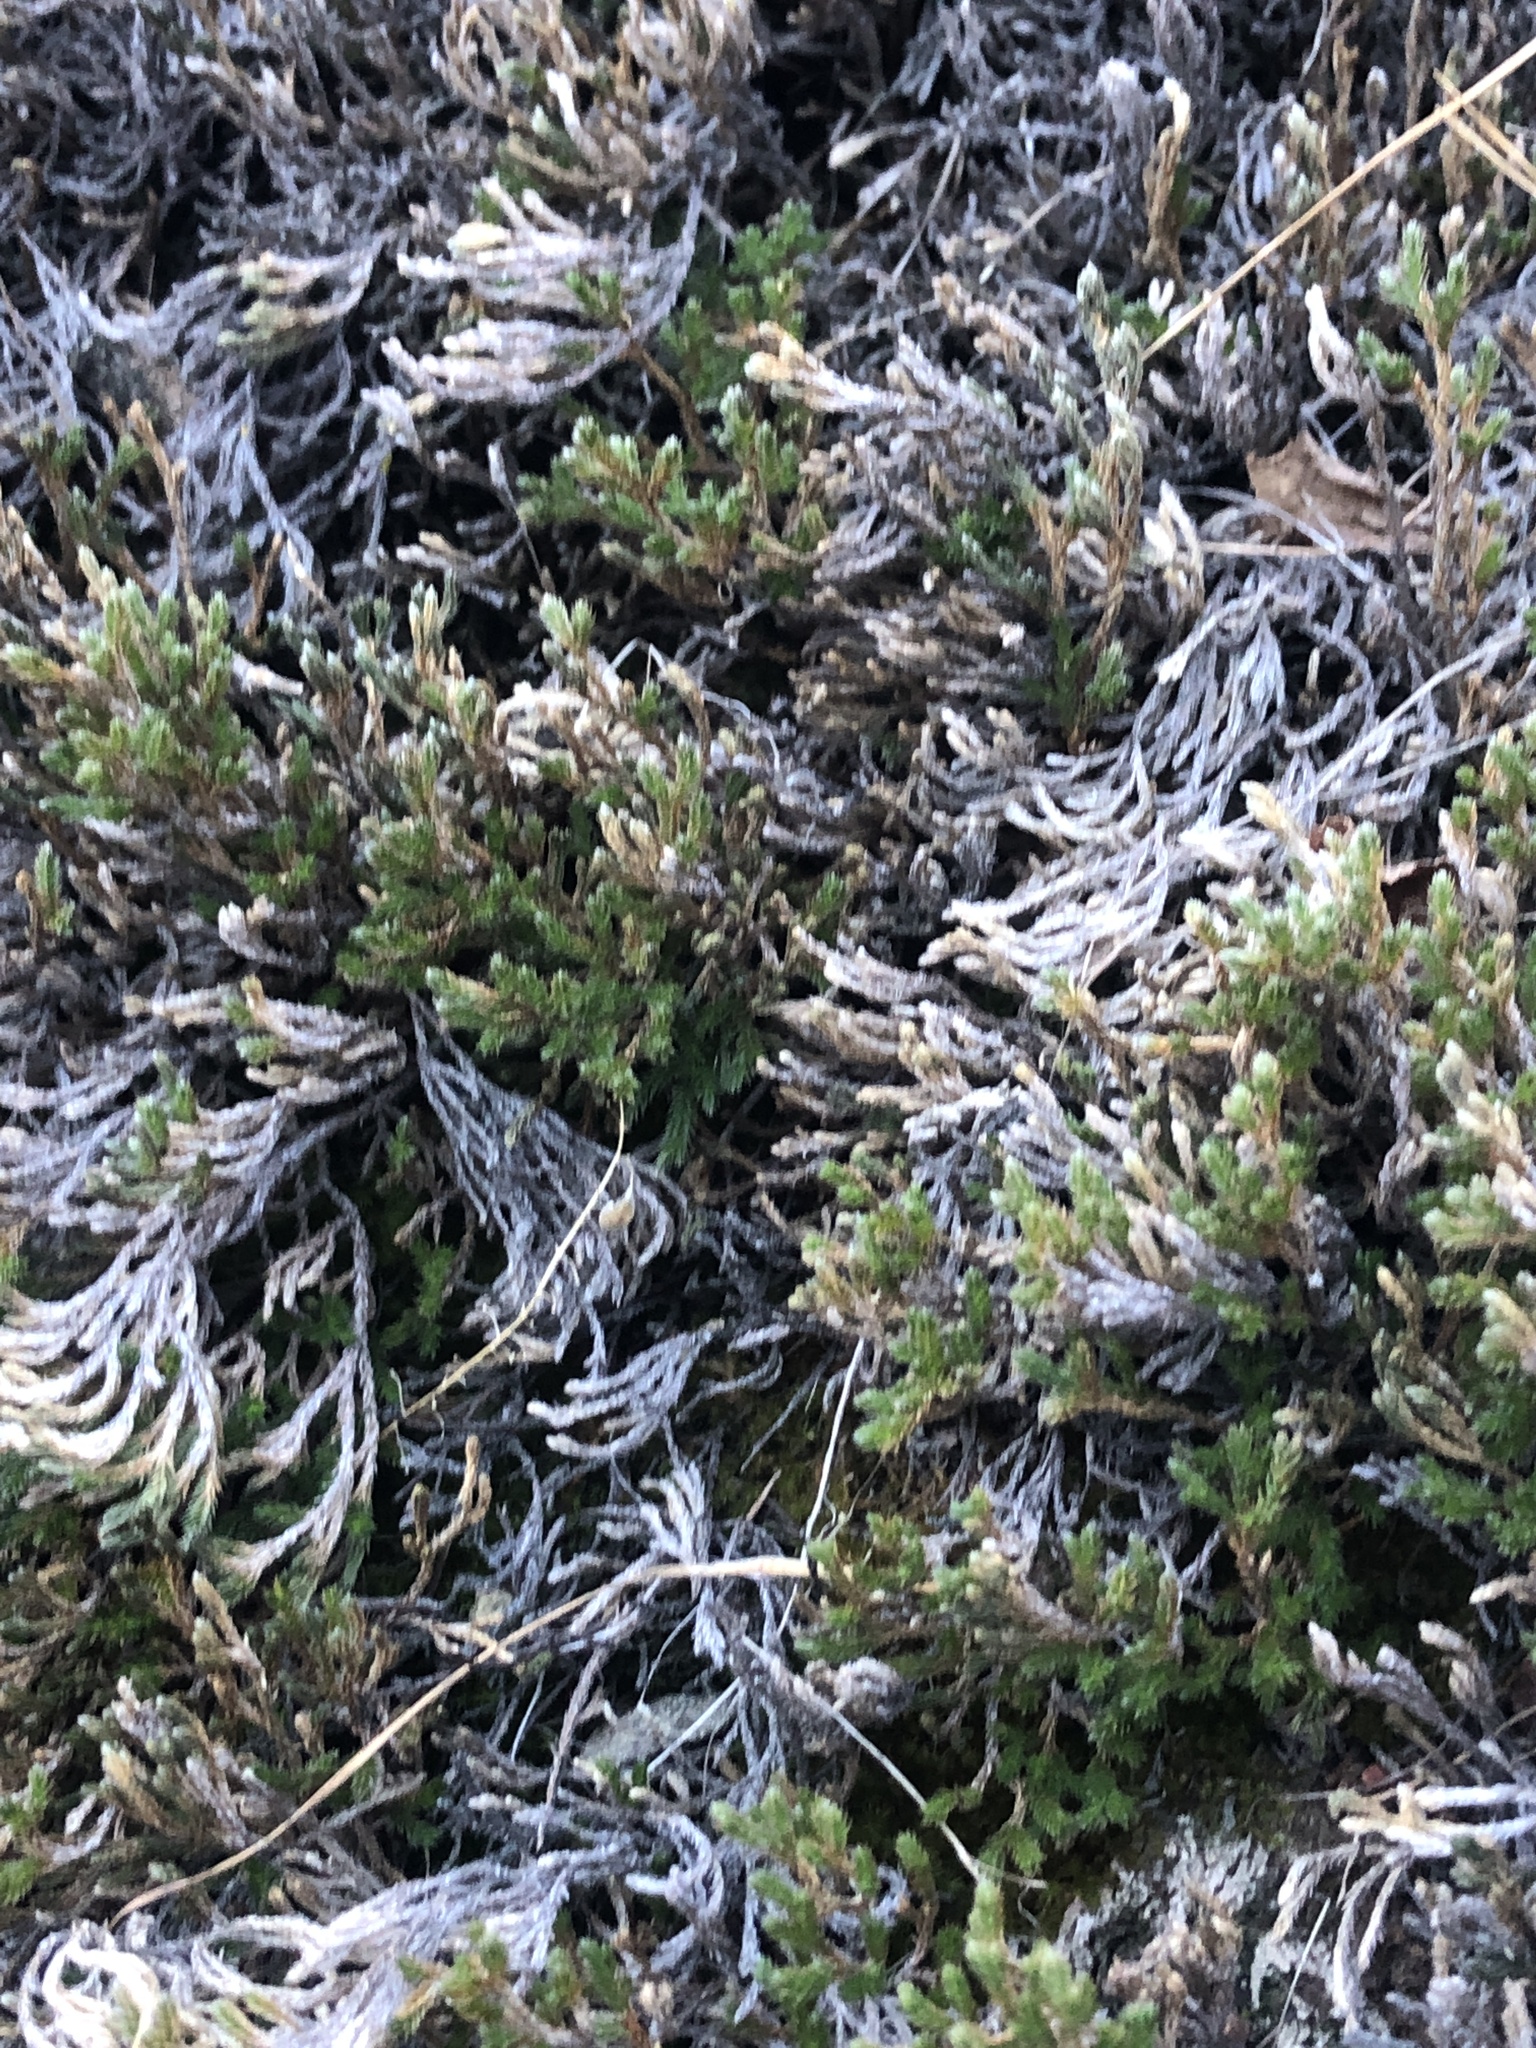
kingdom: Plantae
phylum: Tracheophyta
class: Lycopodiopsida
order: Selaginellales
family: Selaginellaceae
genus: Selaginella
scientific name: Selaginella bigelovii
